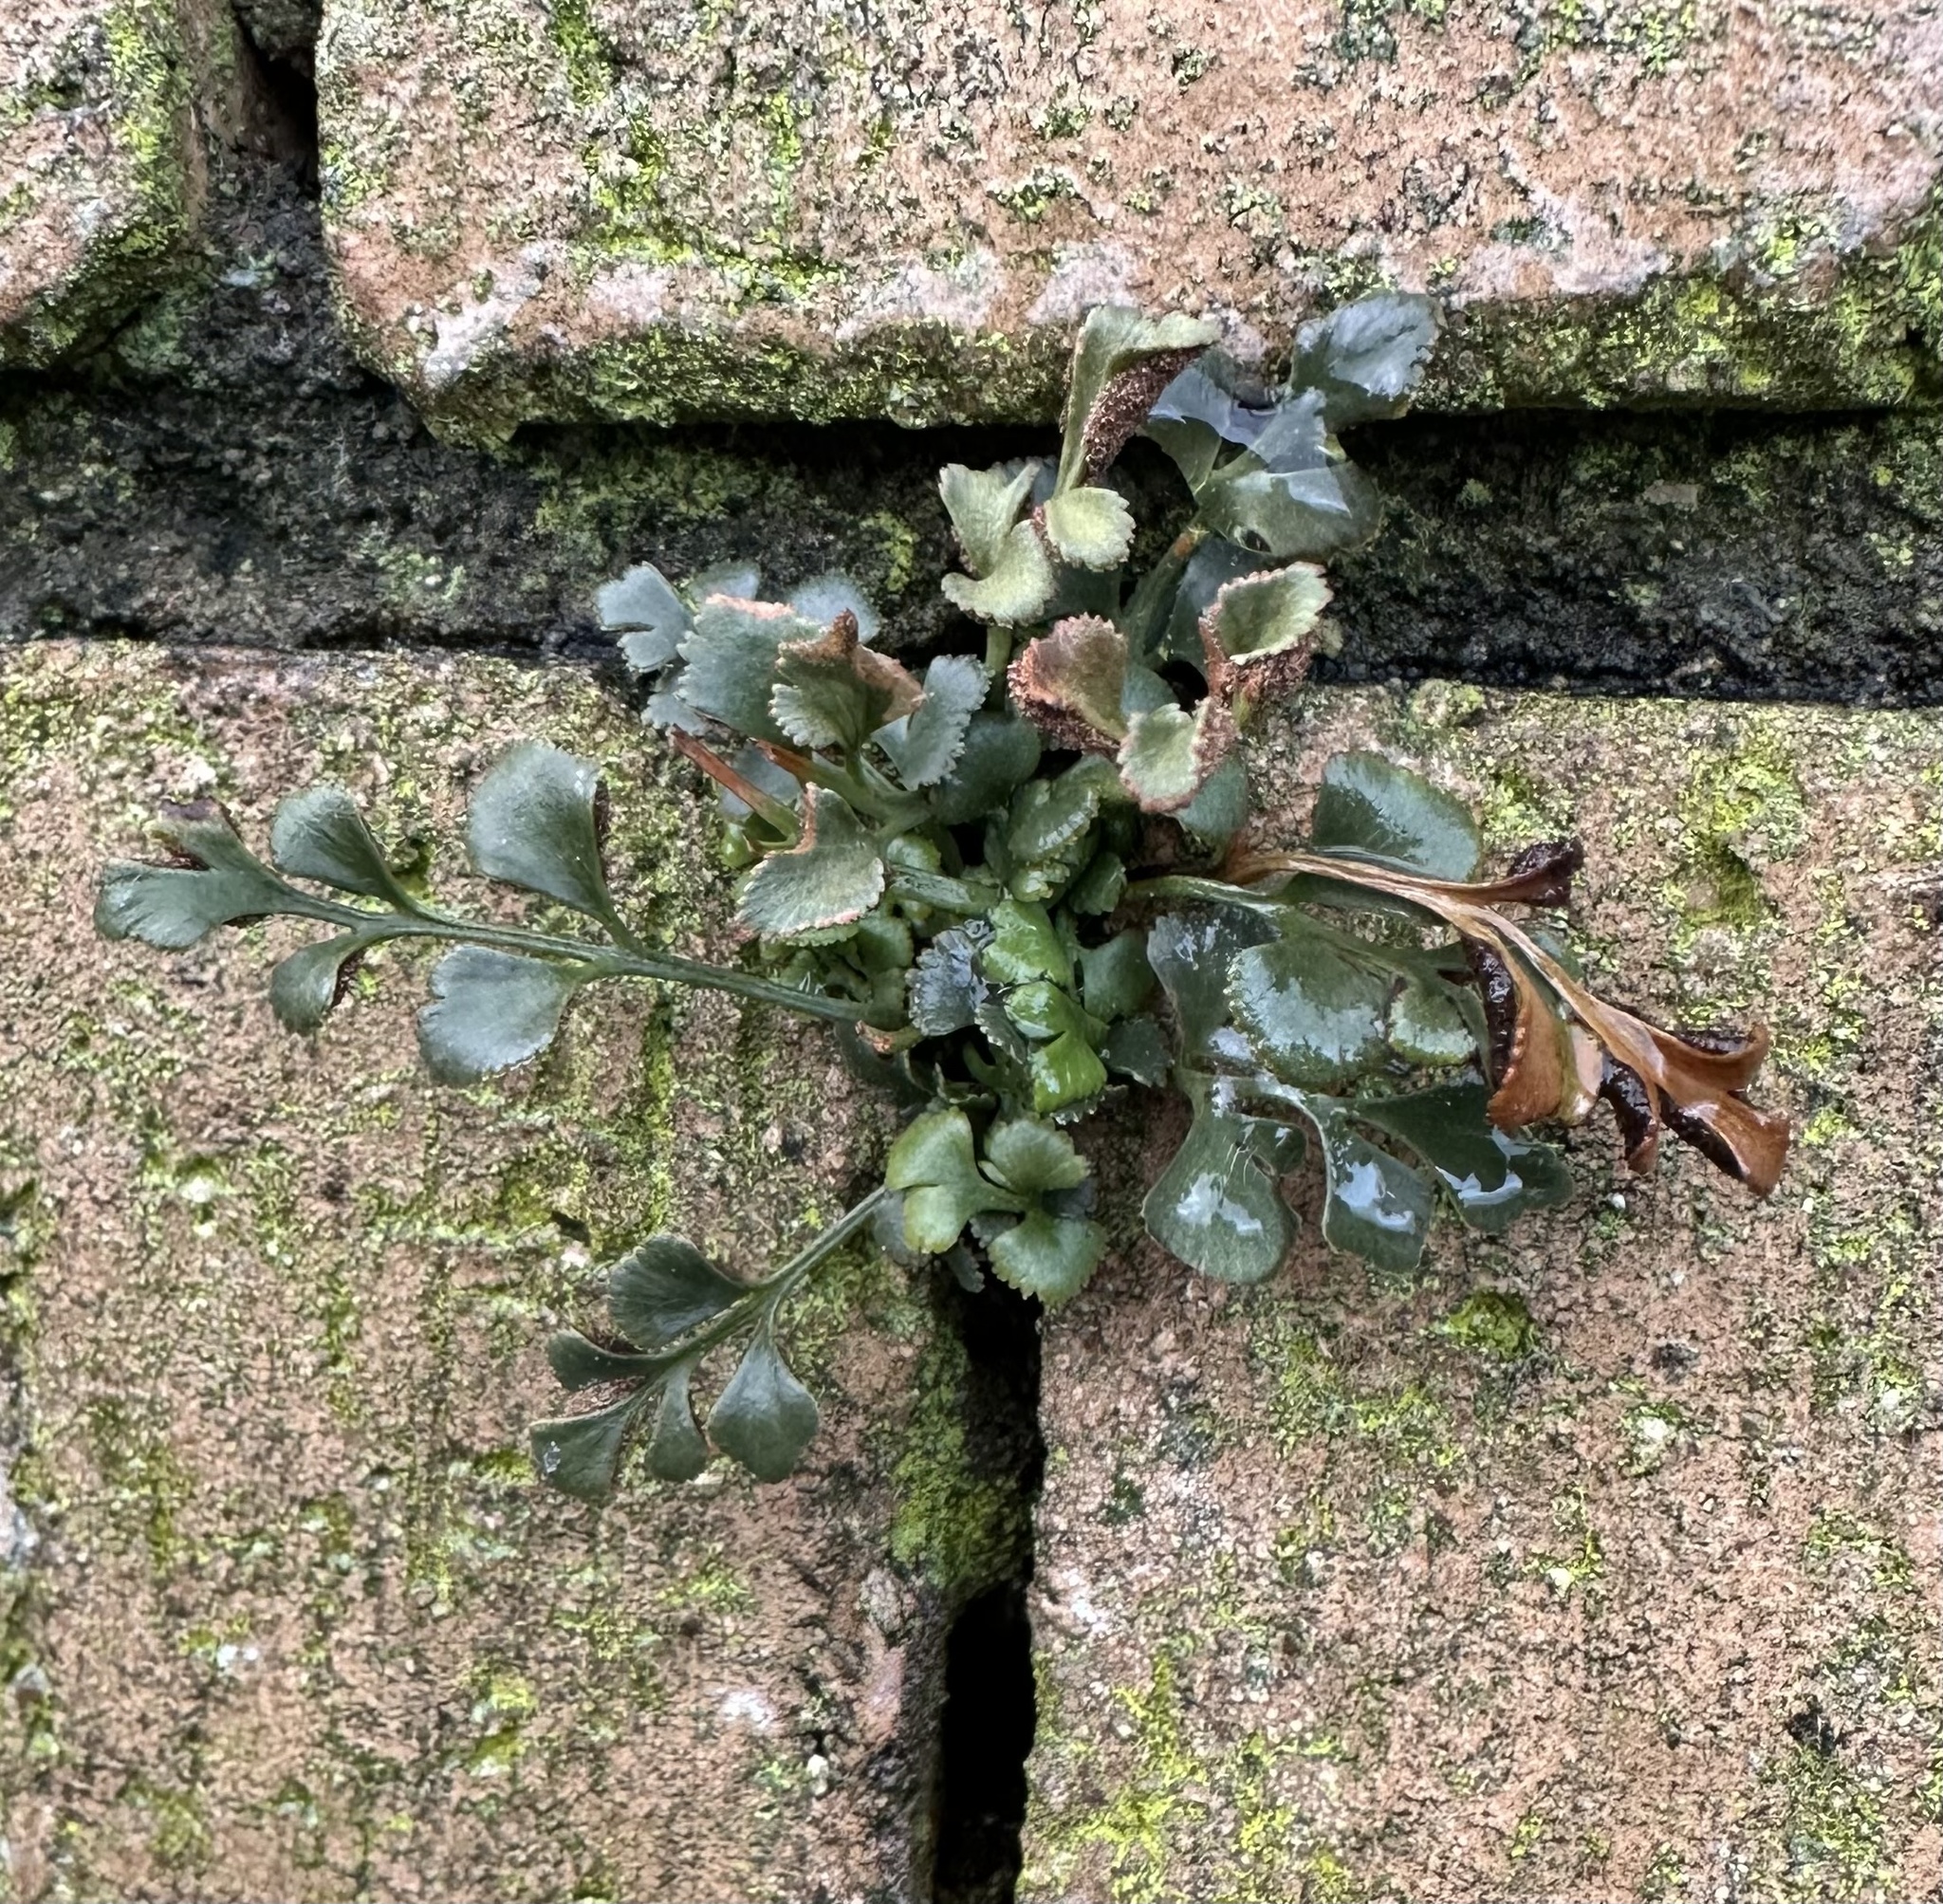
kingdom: Plantae
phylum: Tracheophyta
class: Polypodiopsida
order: Polypodiales
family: Aspleniaceae
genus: Asplenium
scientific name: Asplenium ruta-muraria
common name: Wall-rue
